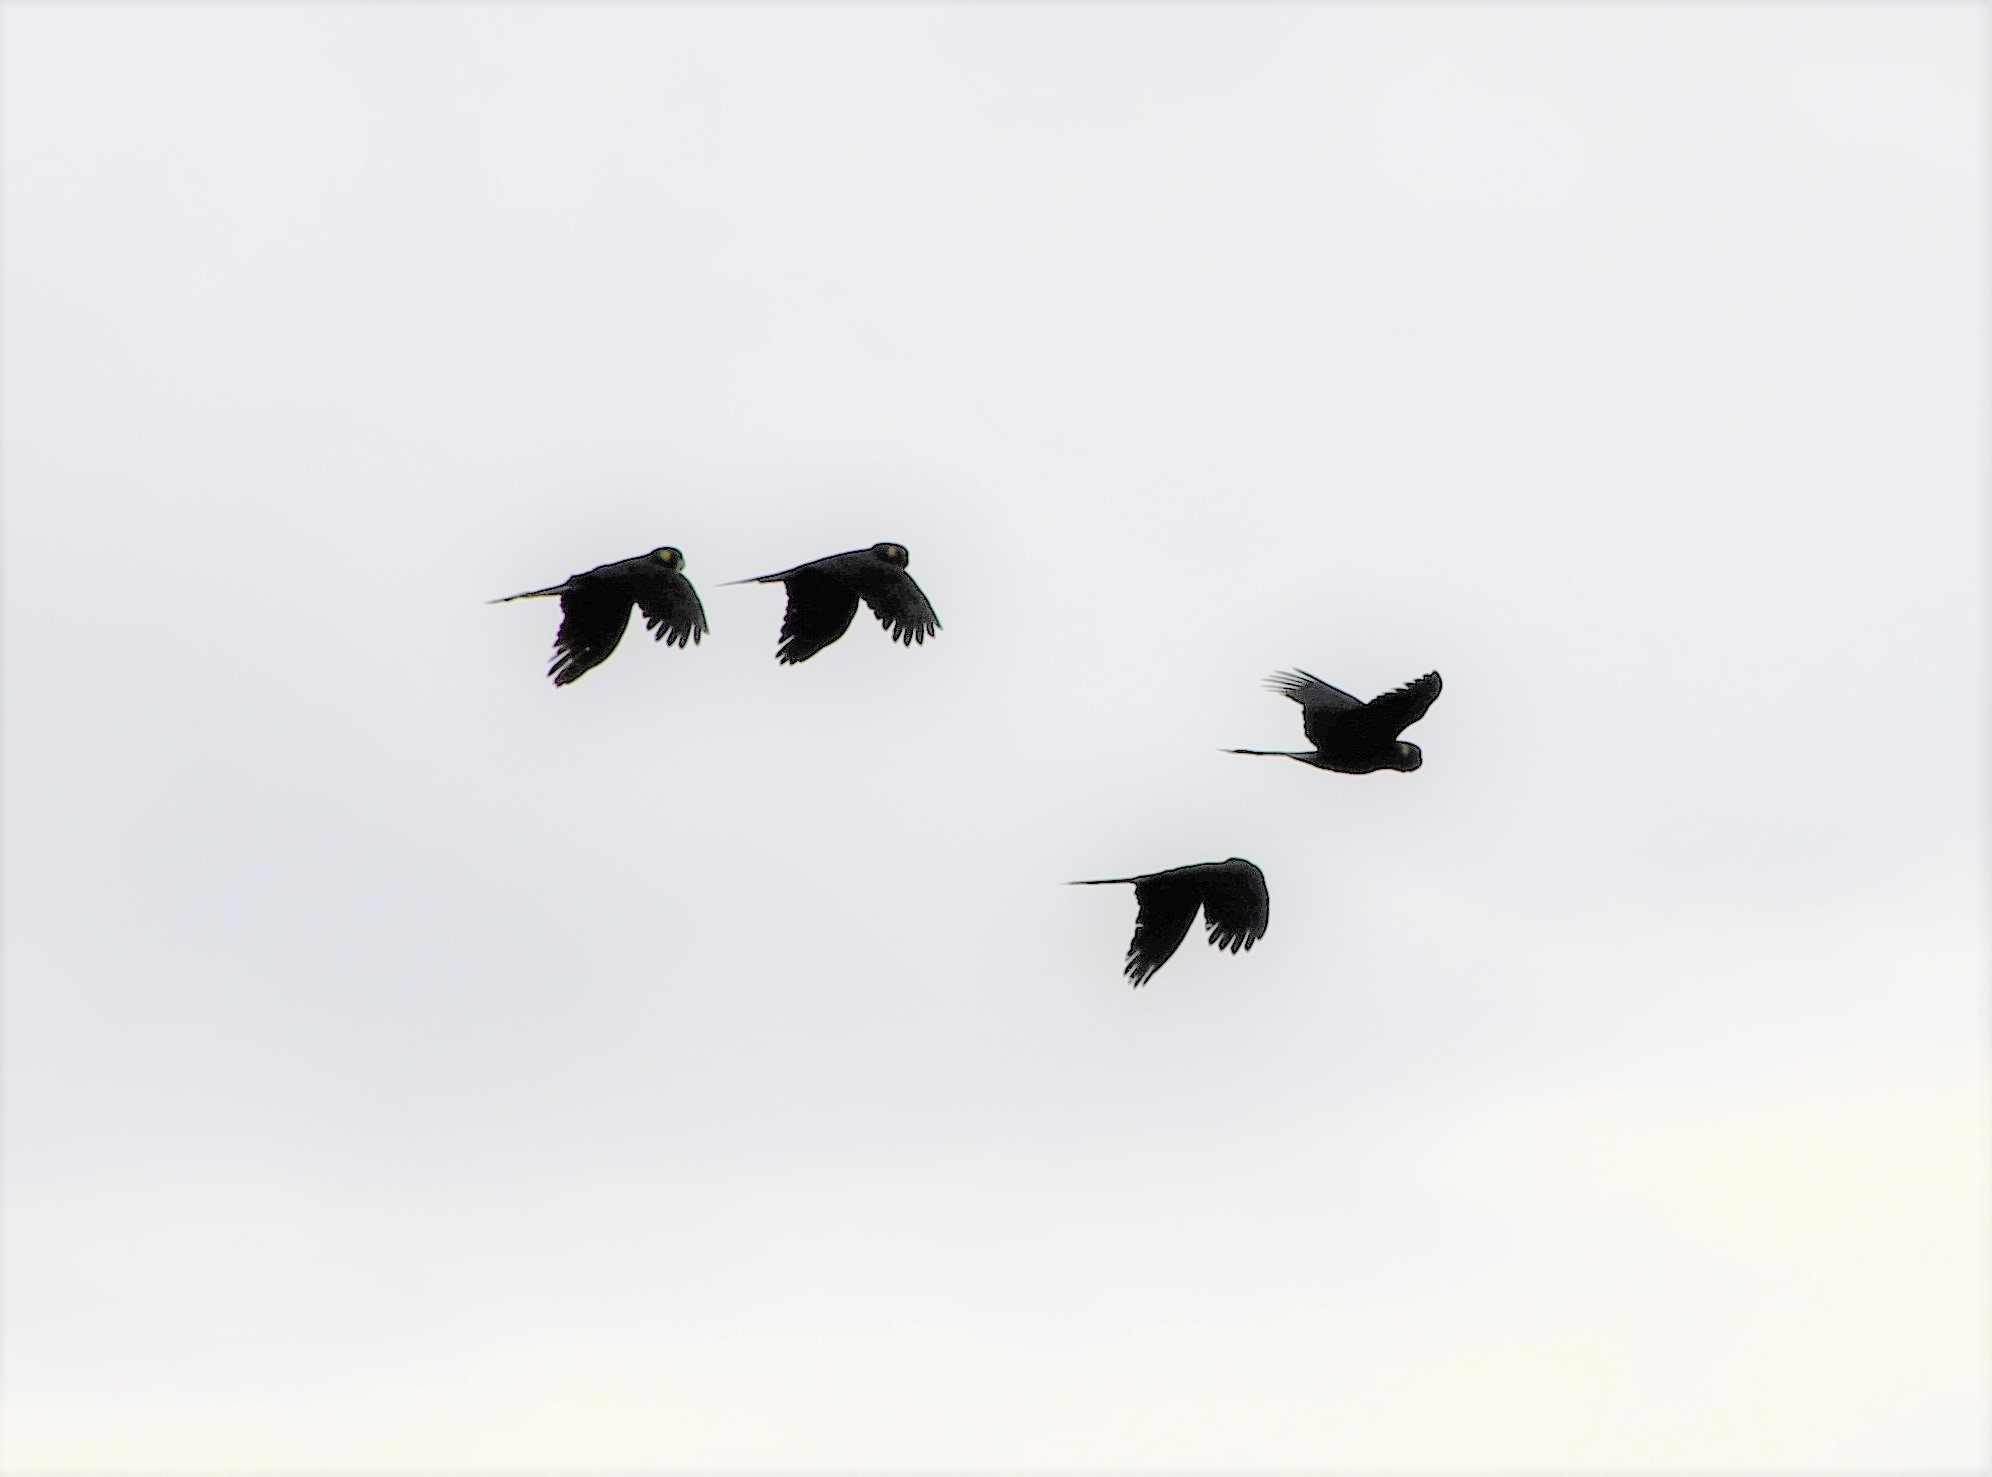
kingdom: Animalia
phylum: Chordata
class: Aves
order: Psittaciformes
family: Cacatuidae
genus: Zanda
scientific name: Zanda funerea
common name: Yellow-tailed black-cockatoo
